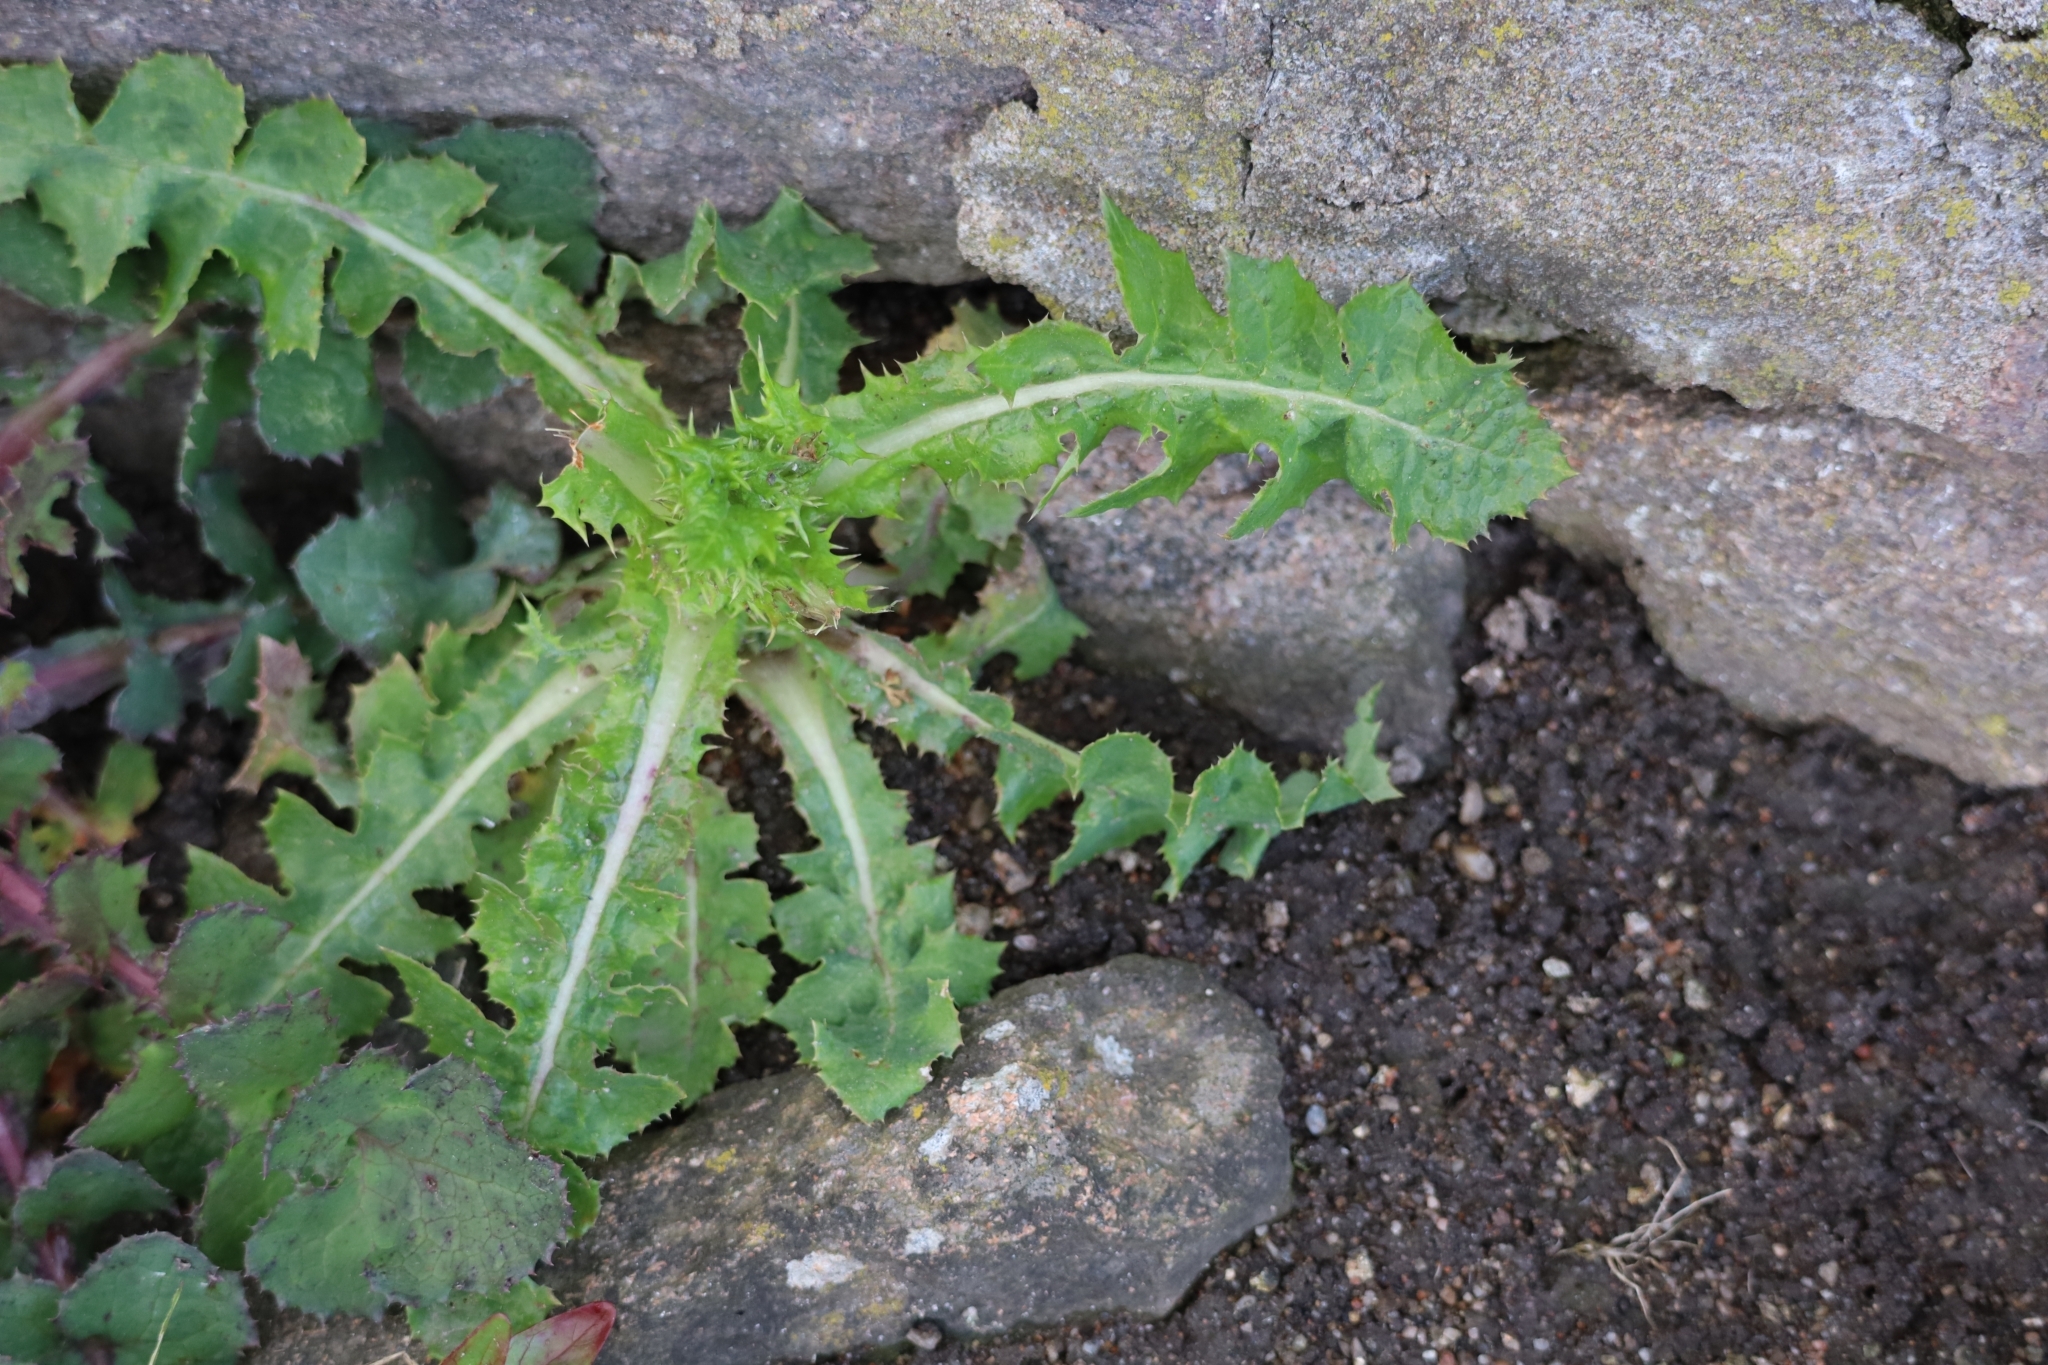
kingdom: Plantae
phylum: Tracheophyta
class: Magnoliopsida
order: Asterales
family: Asteraceae
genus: Sonchus
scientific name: Sonchus asper
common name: Prickly sow-thistle
